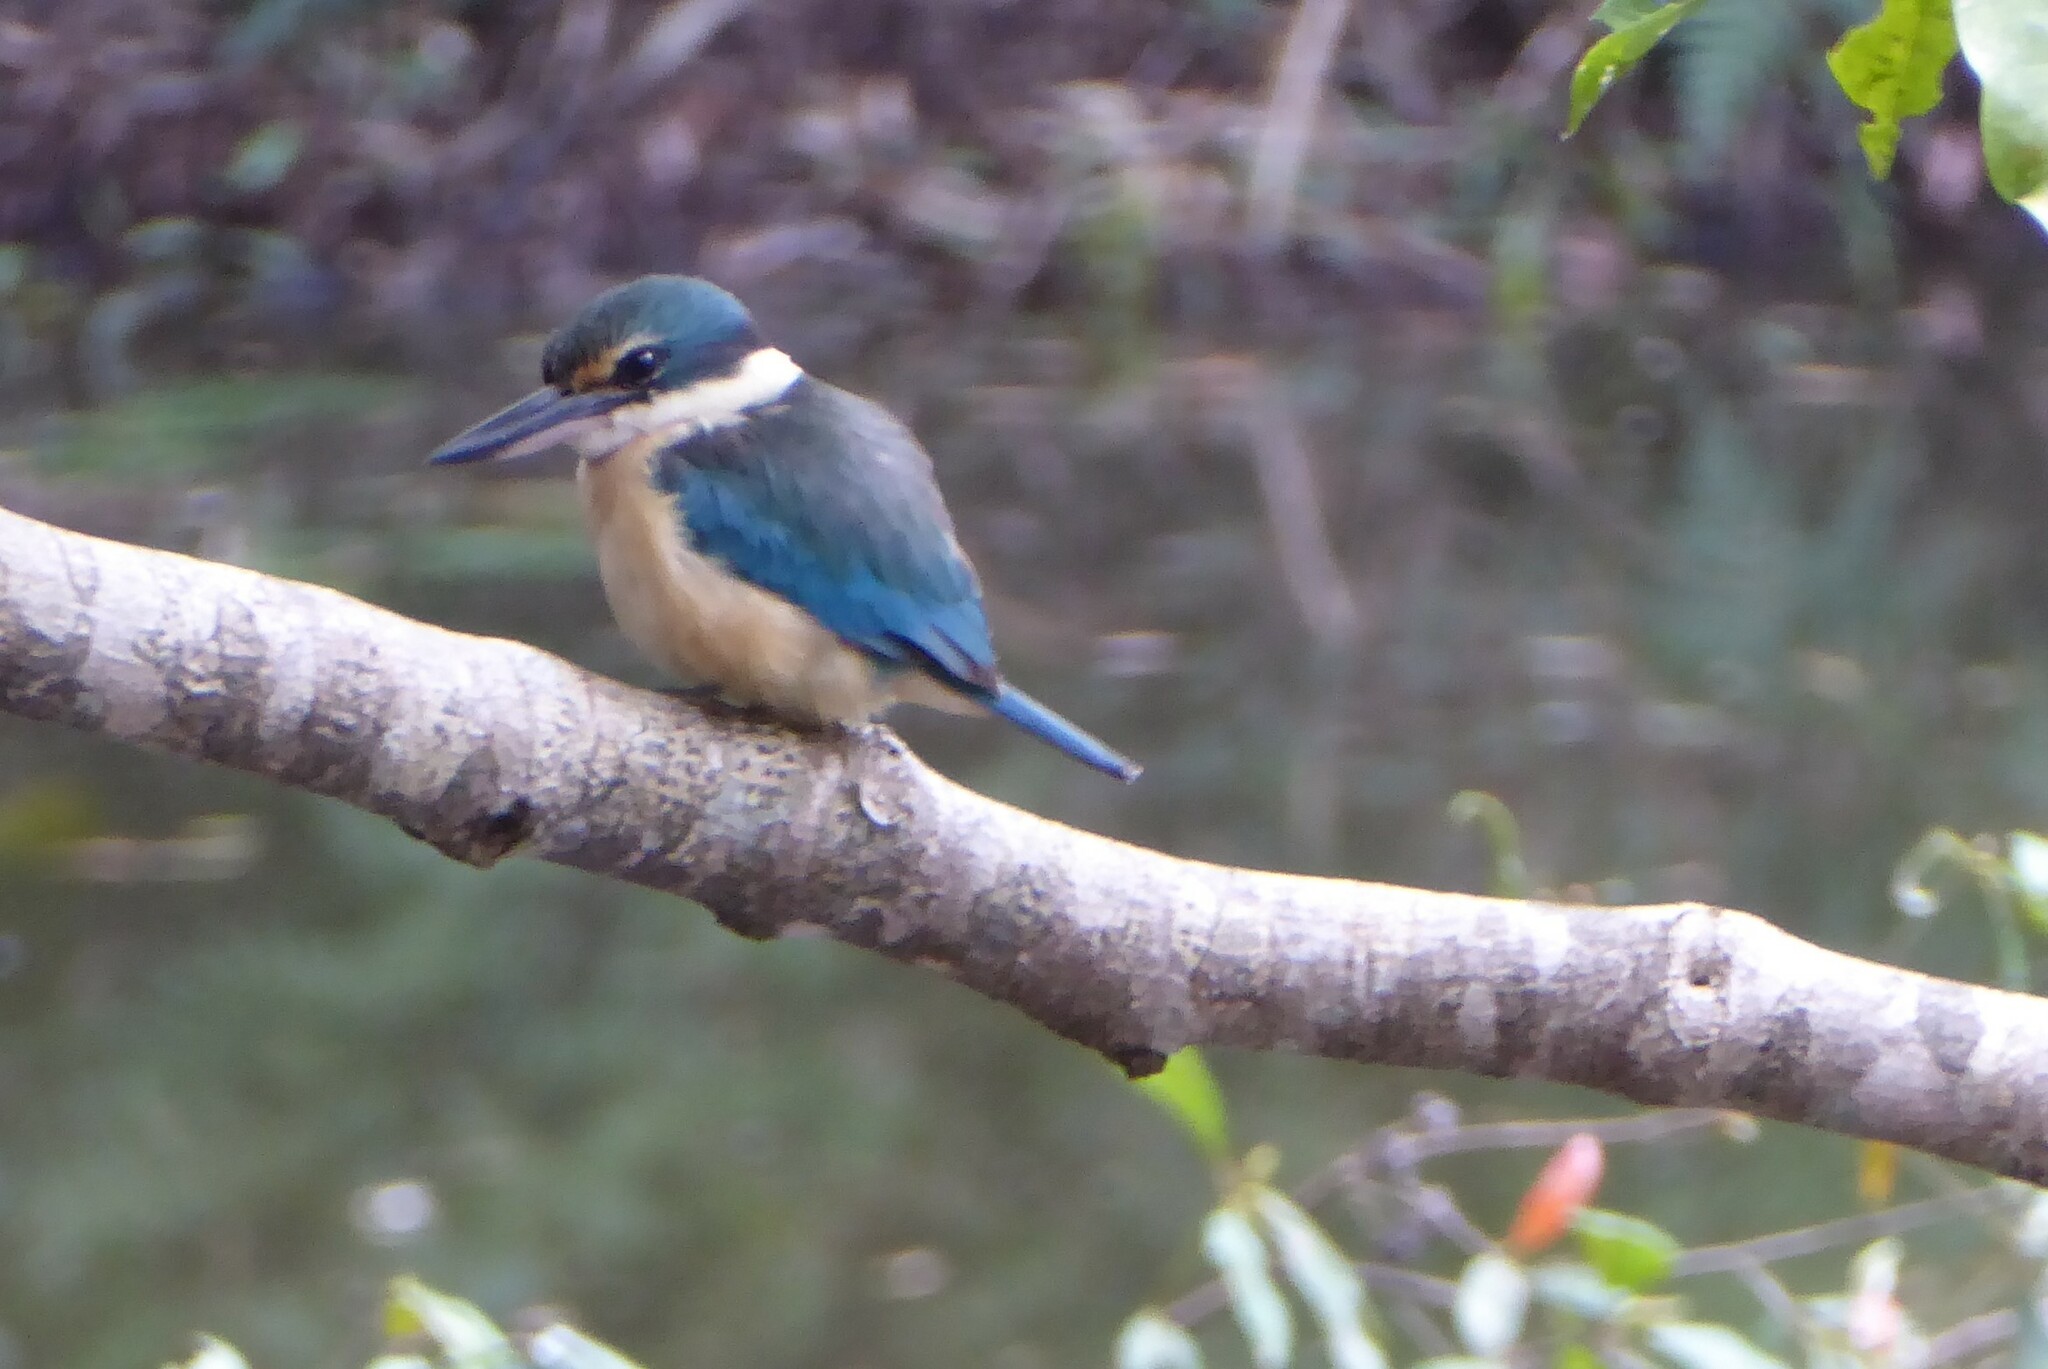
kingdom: Animalia
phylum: Chordata
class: Aves
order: Coraciiformes
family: Alcedinidae
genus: Todiramphus
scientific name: Todiramphus sanctus
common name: Sacred kingfisher
